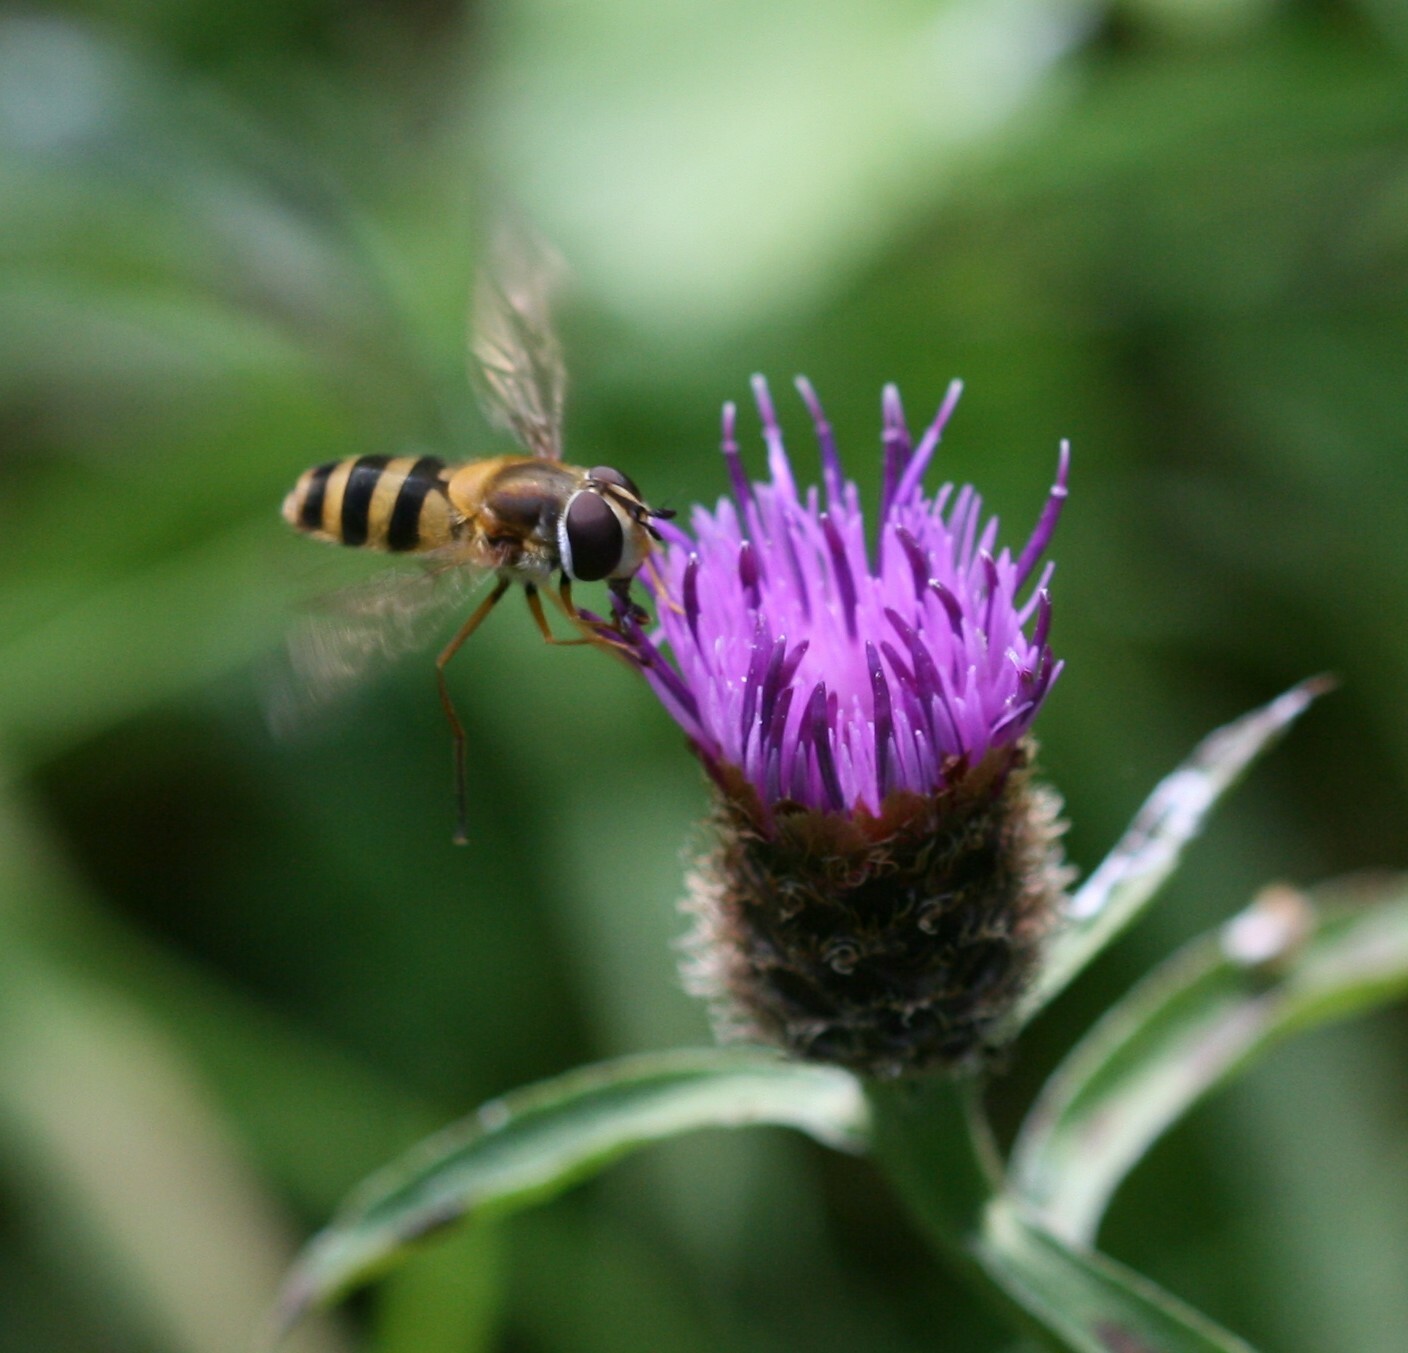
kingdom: Animalia
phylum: Arthropoda
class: Insecta
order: Diptera
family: Syrphidae
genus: Epistrophe
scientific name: Epistrophe grossulariae
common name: Black-horned smoothtail
